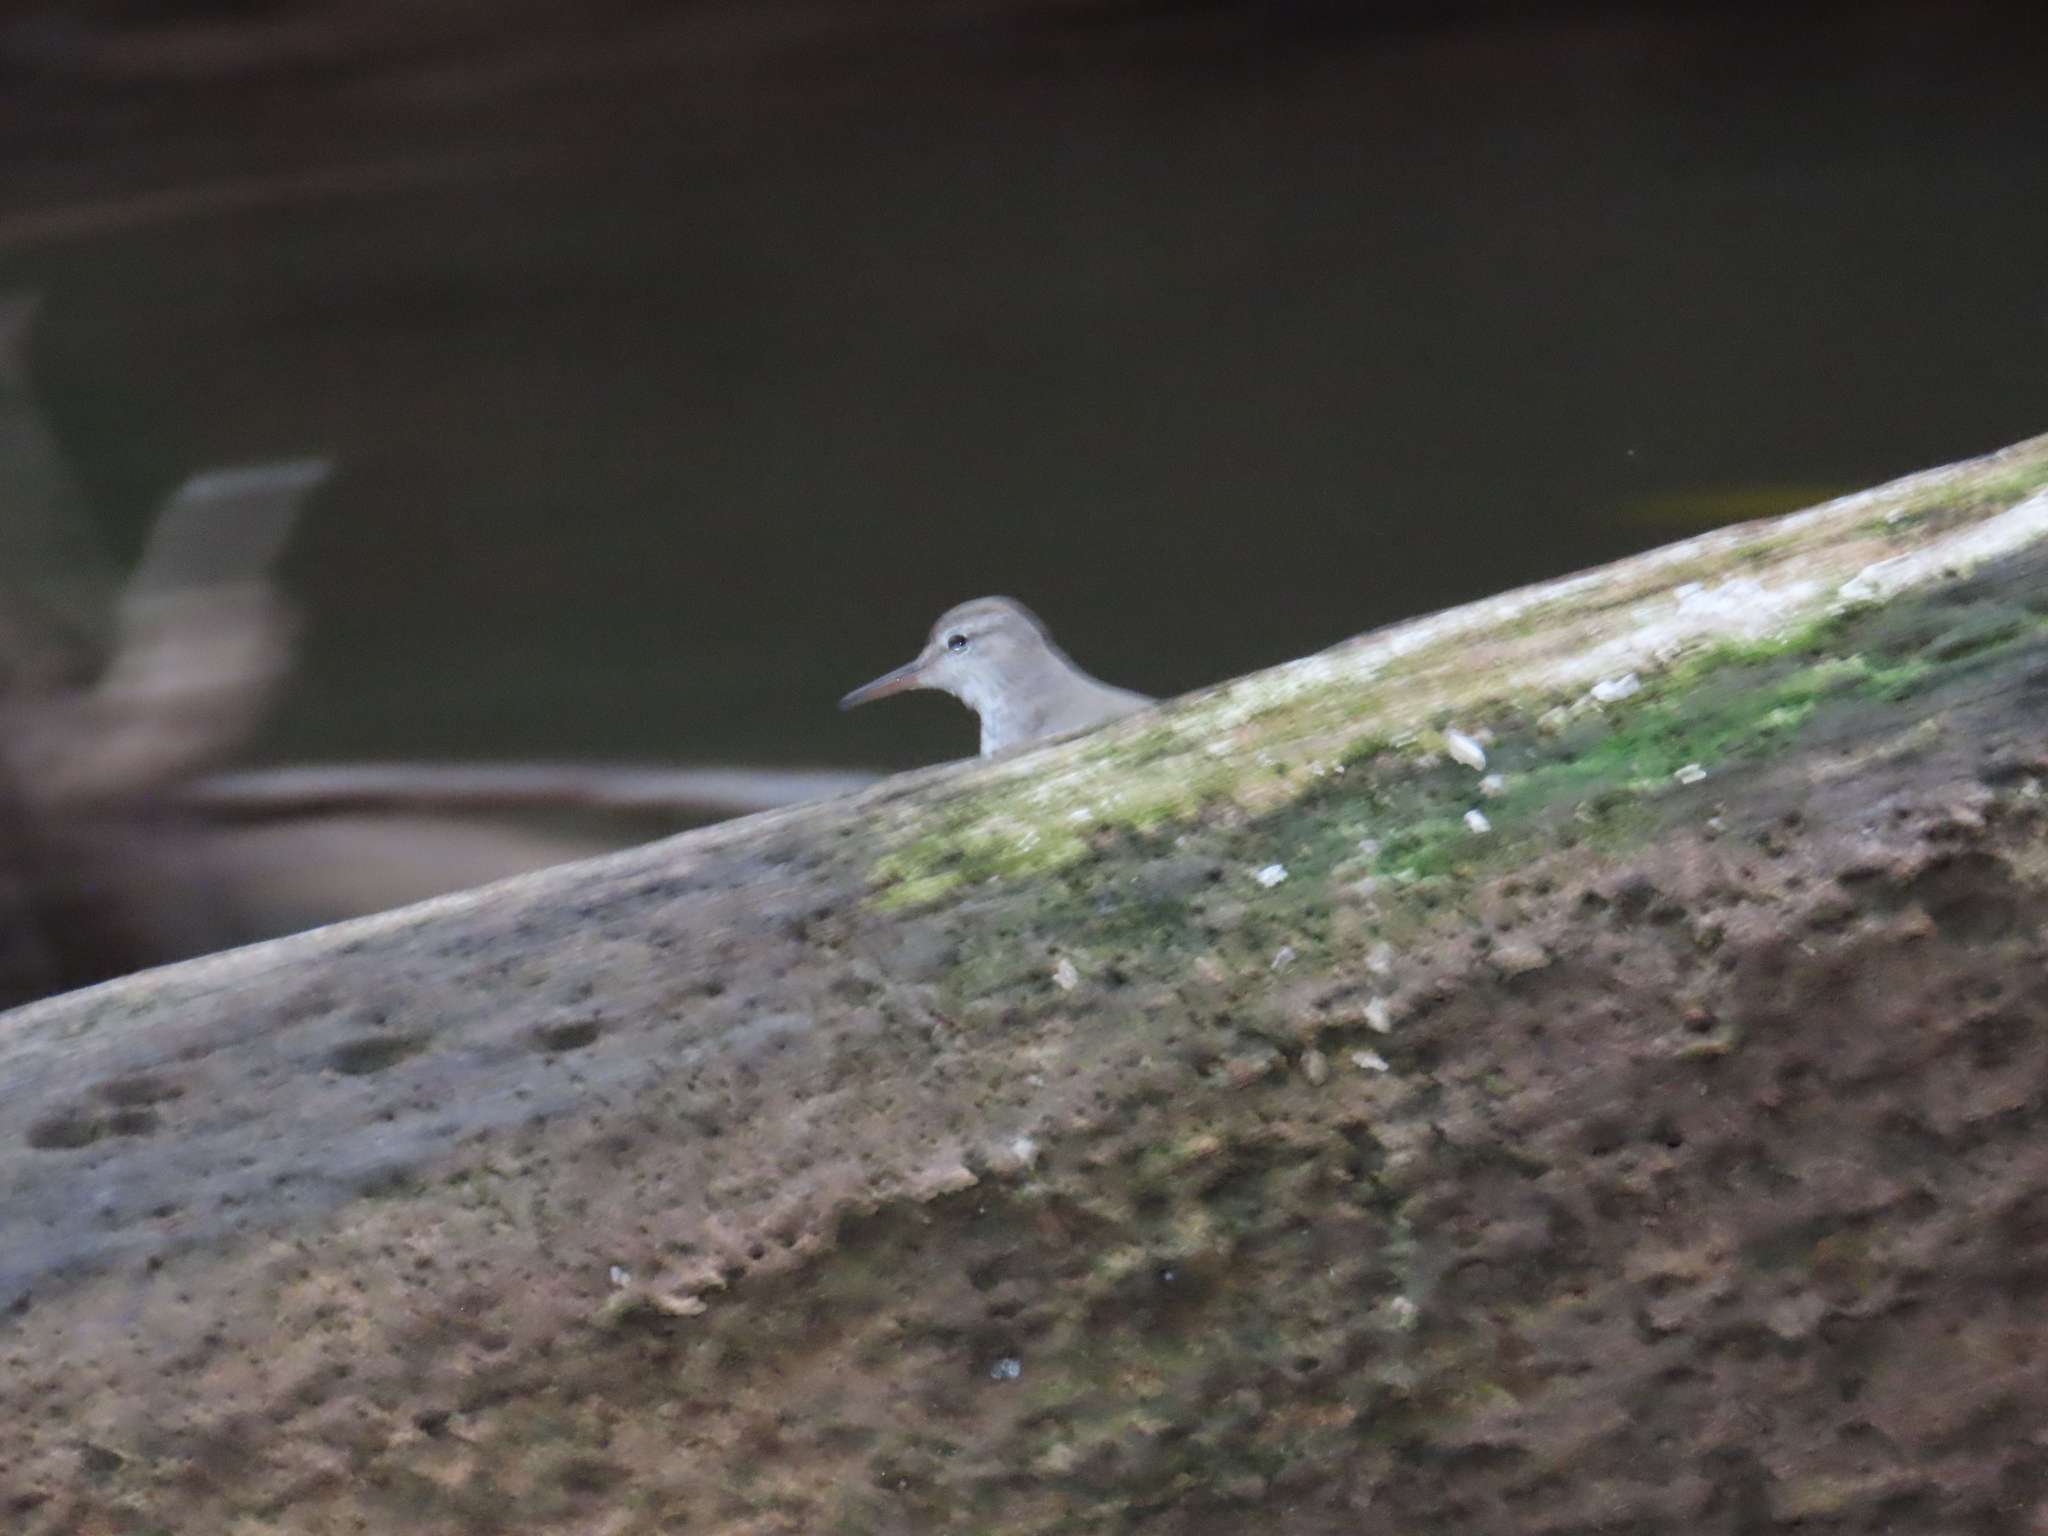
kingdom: Animalia
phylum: Chordata
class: Aves
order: Charadriiformes
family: Scolopacidae
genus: Actitis
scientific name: Actitis macularius
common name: Spotted sandpiper
